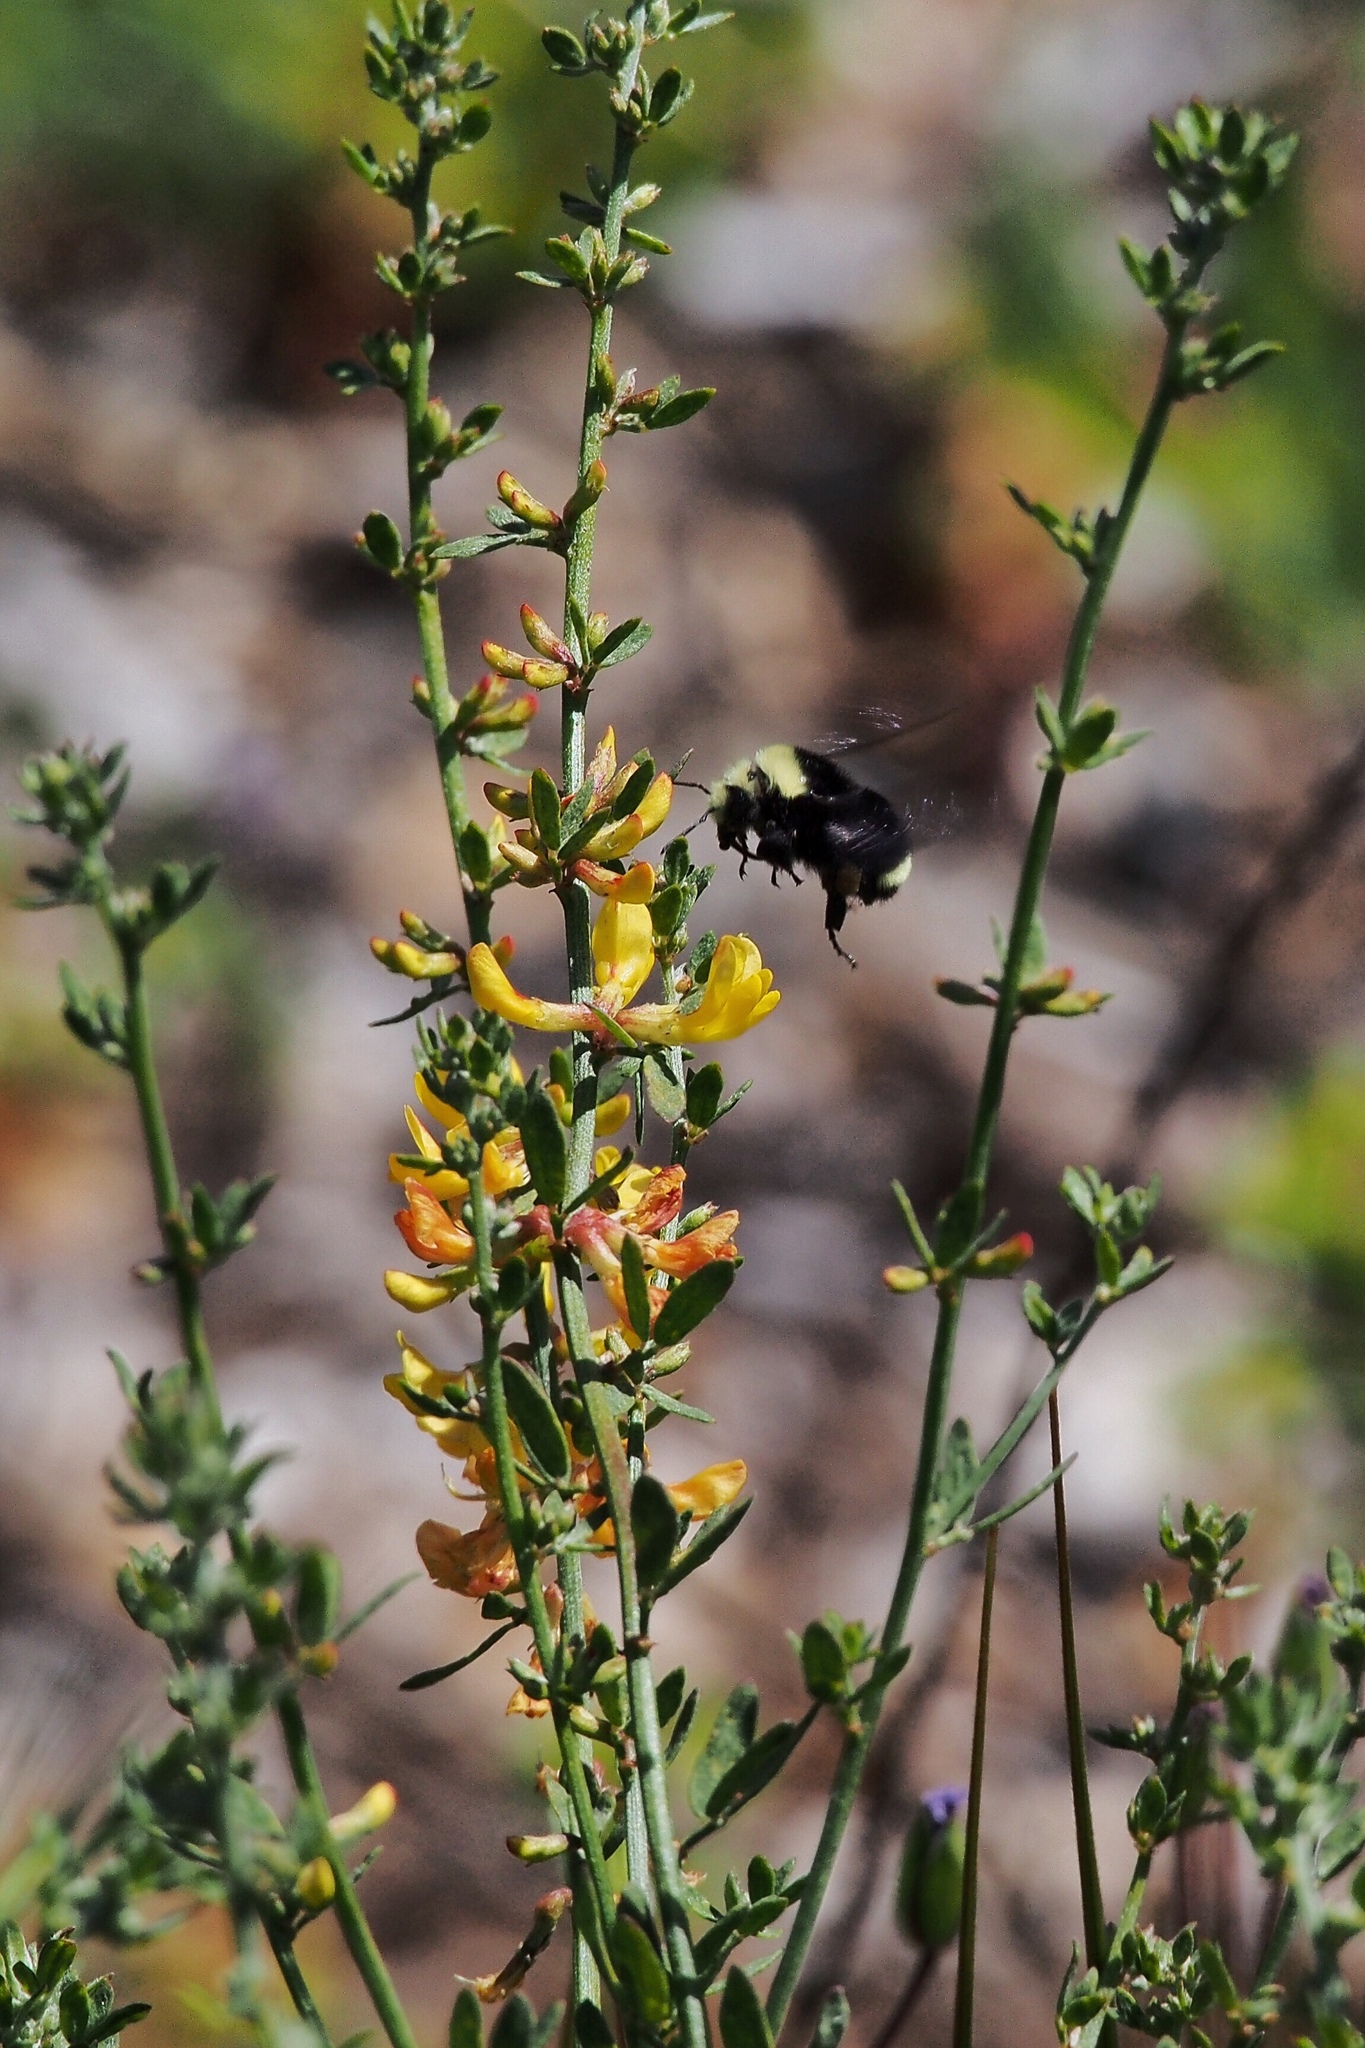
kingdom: Animalia
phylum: Arthropoda
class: Insecta
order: Hymenoptera
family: Apidae
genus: Bombus
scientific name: Bombus vosnesenskii
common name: Vosnesensky bumble bee
